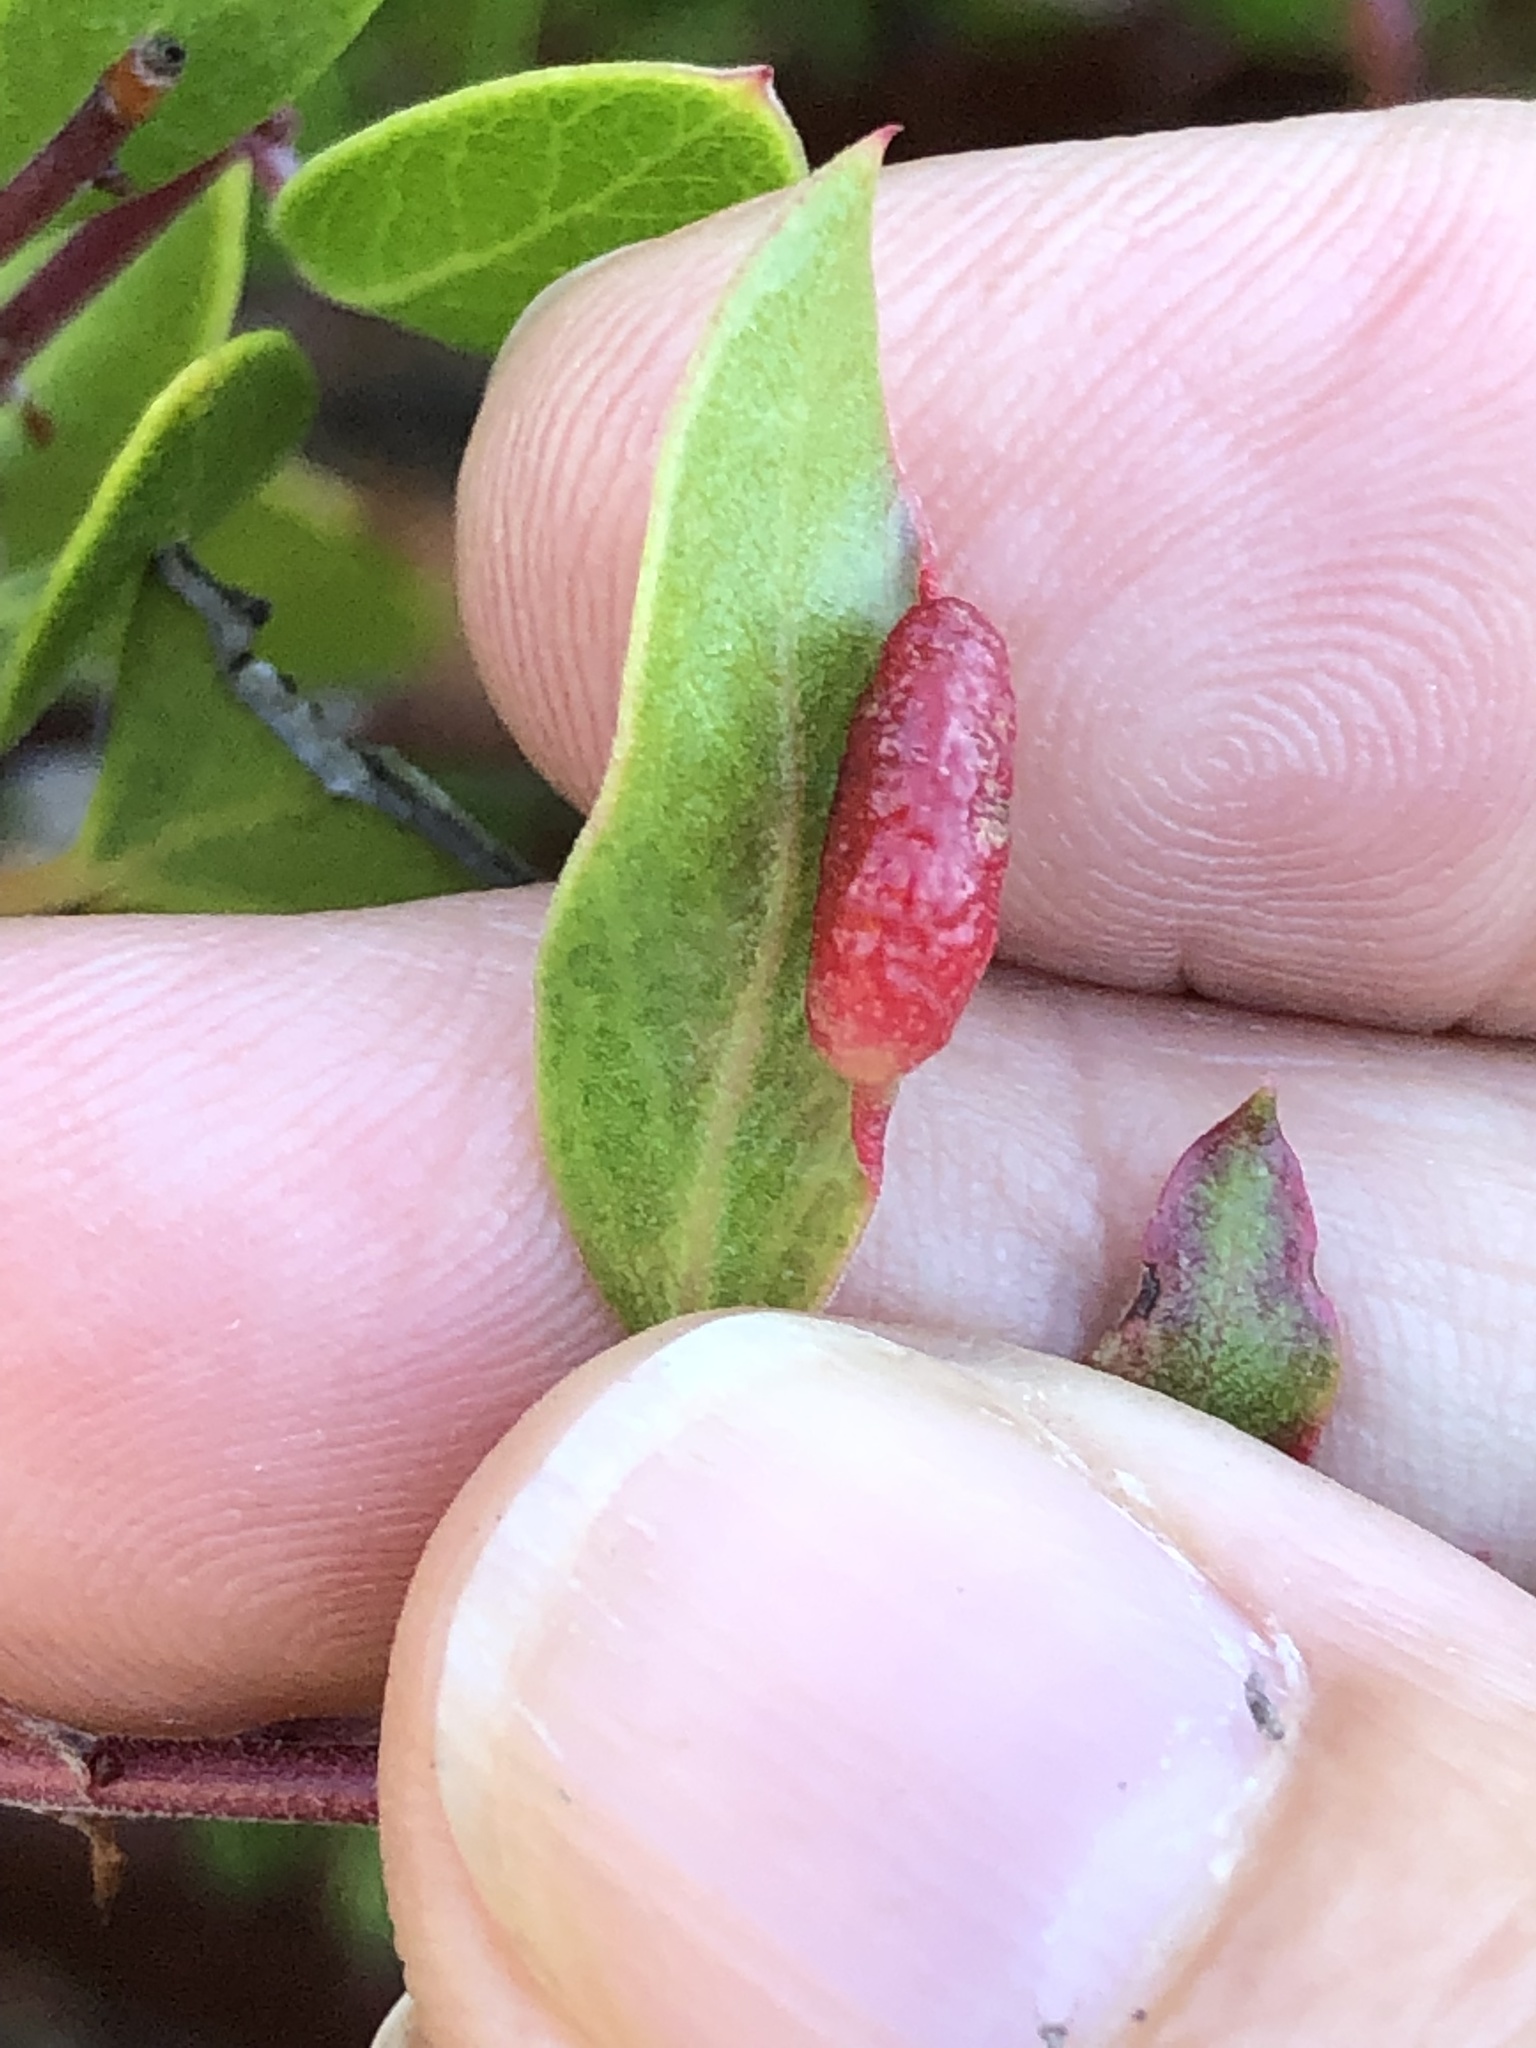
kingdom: Animalia
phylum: Arthropoda
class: Insecta
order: Hemiptera
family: Aphididae
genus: Tamalia
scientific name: Tamalia coweni
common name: Manzanita leafgall aphid
